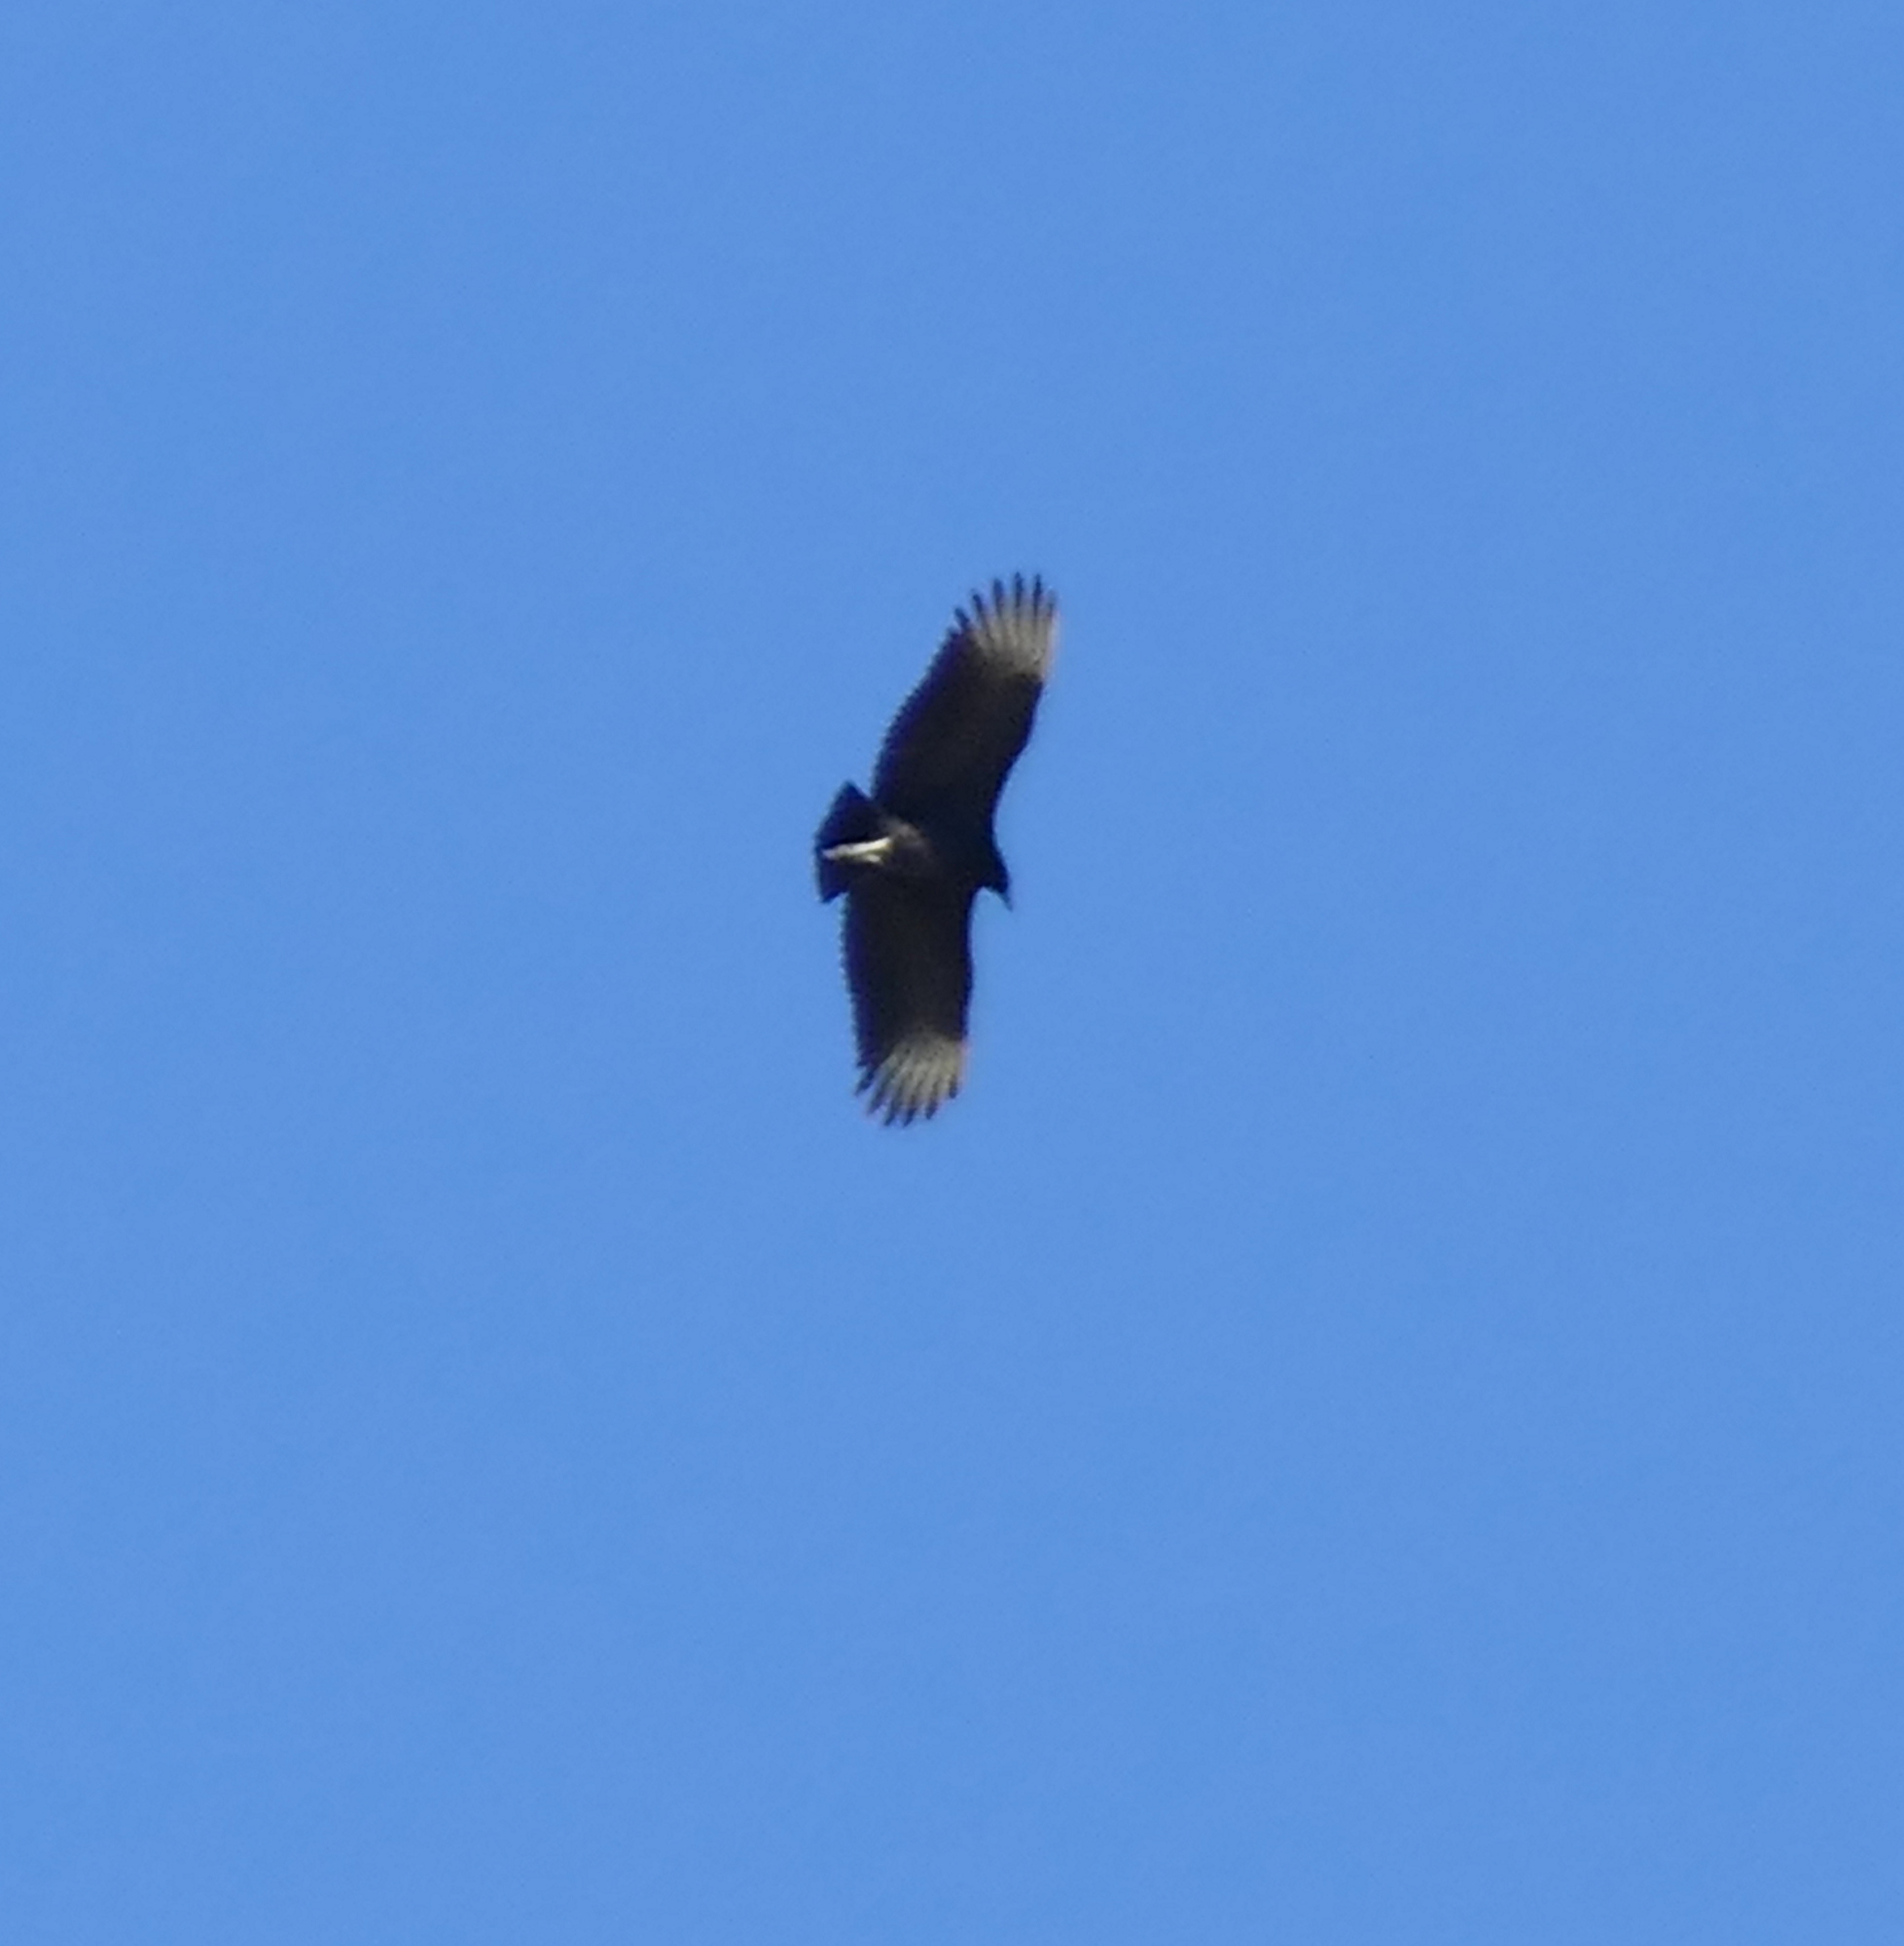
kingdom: Animalia
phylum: Chordata
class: Aves
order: Accipitriformes
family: Cathartidae
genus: Coragyps
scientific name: Coragyps atratus
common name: Black vulture
